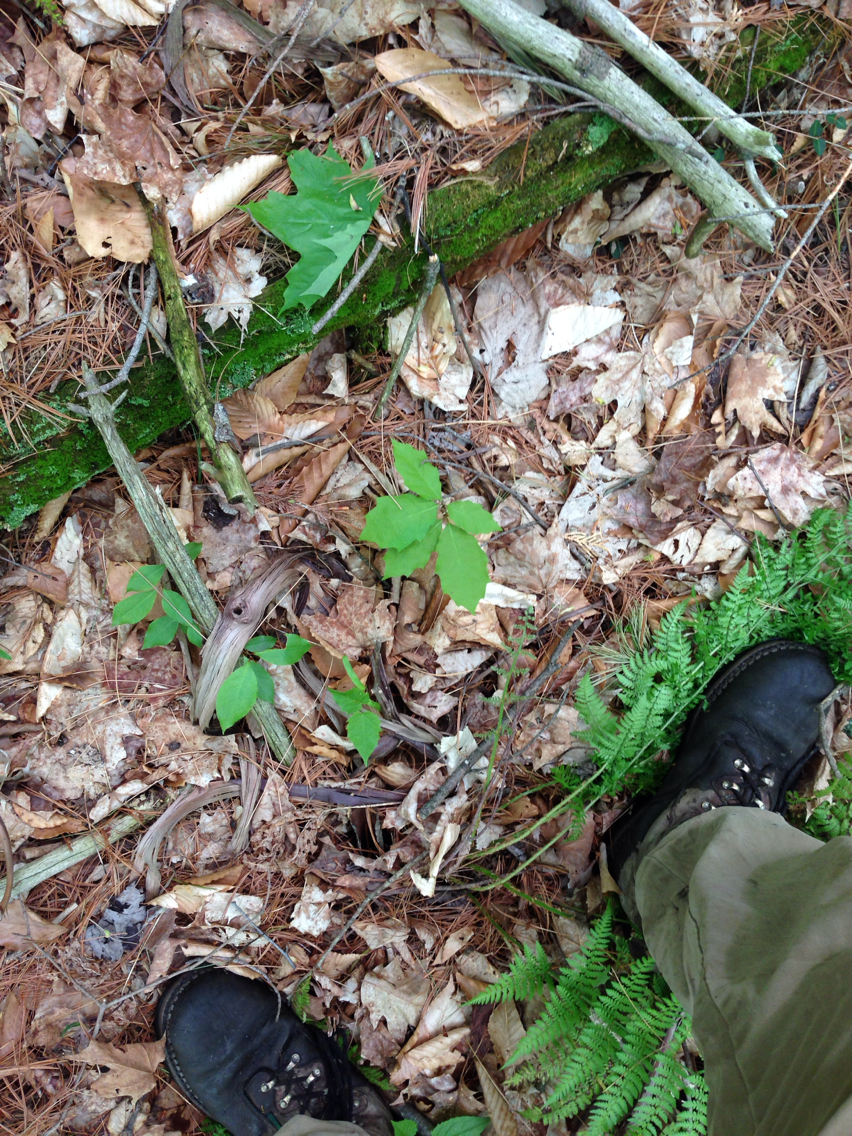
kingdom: Plantae
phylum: Tracheophyta
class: Magnoliopsida
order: Fagales
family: Fagaceae
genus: Quercus
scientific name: Quercus rubra
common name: Red oak
